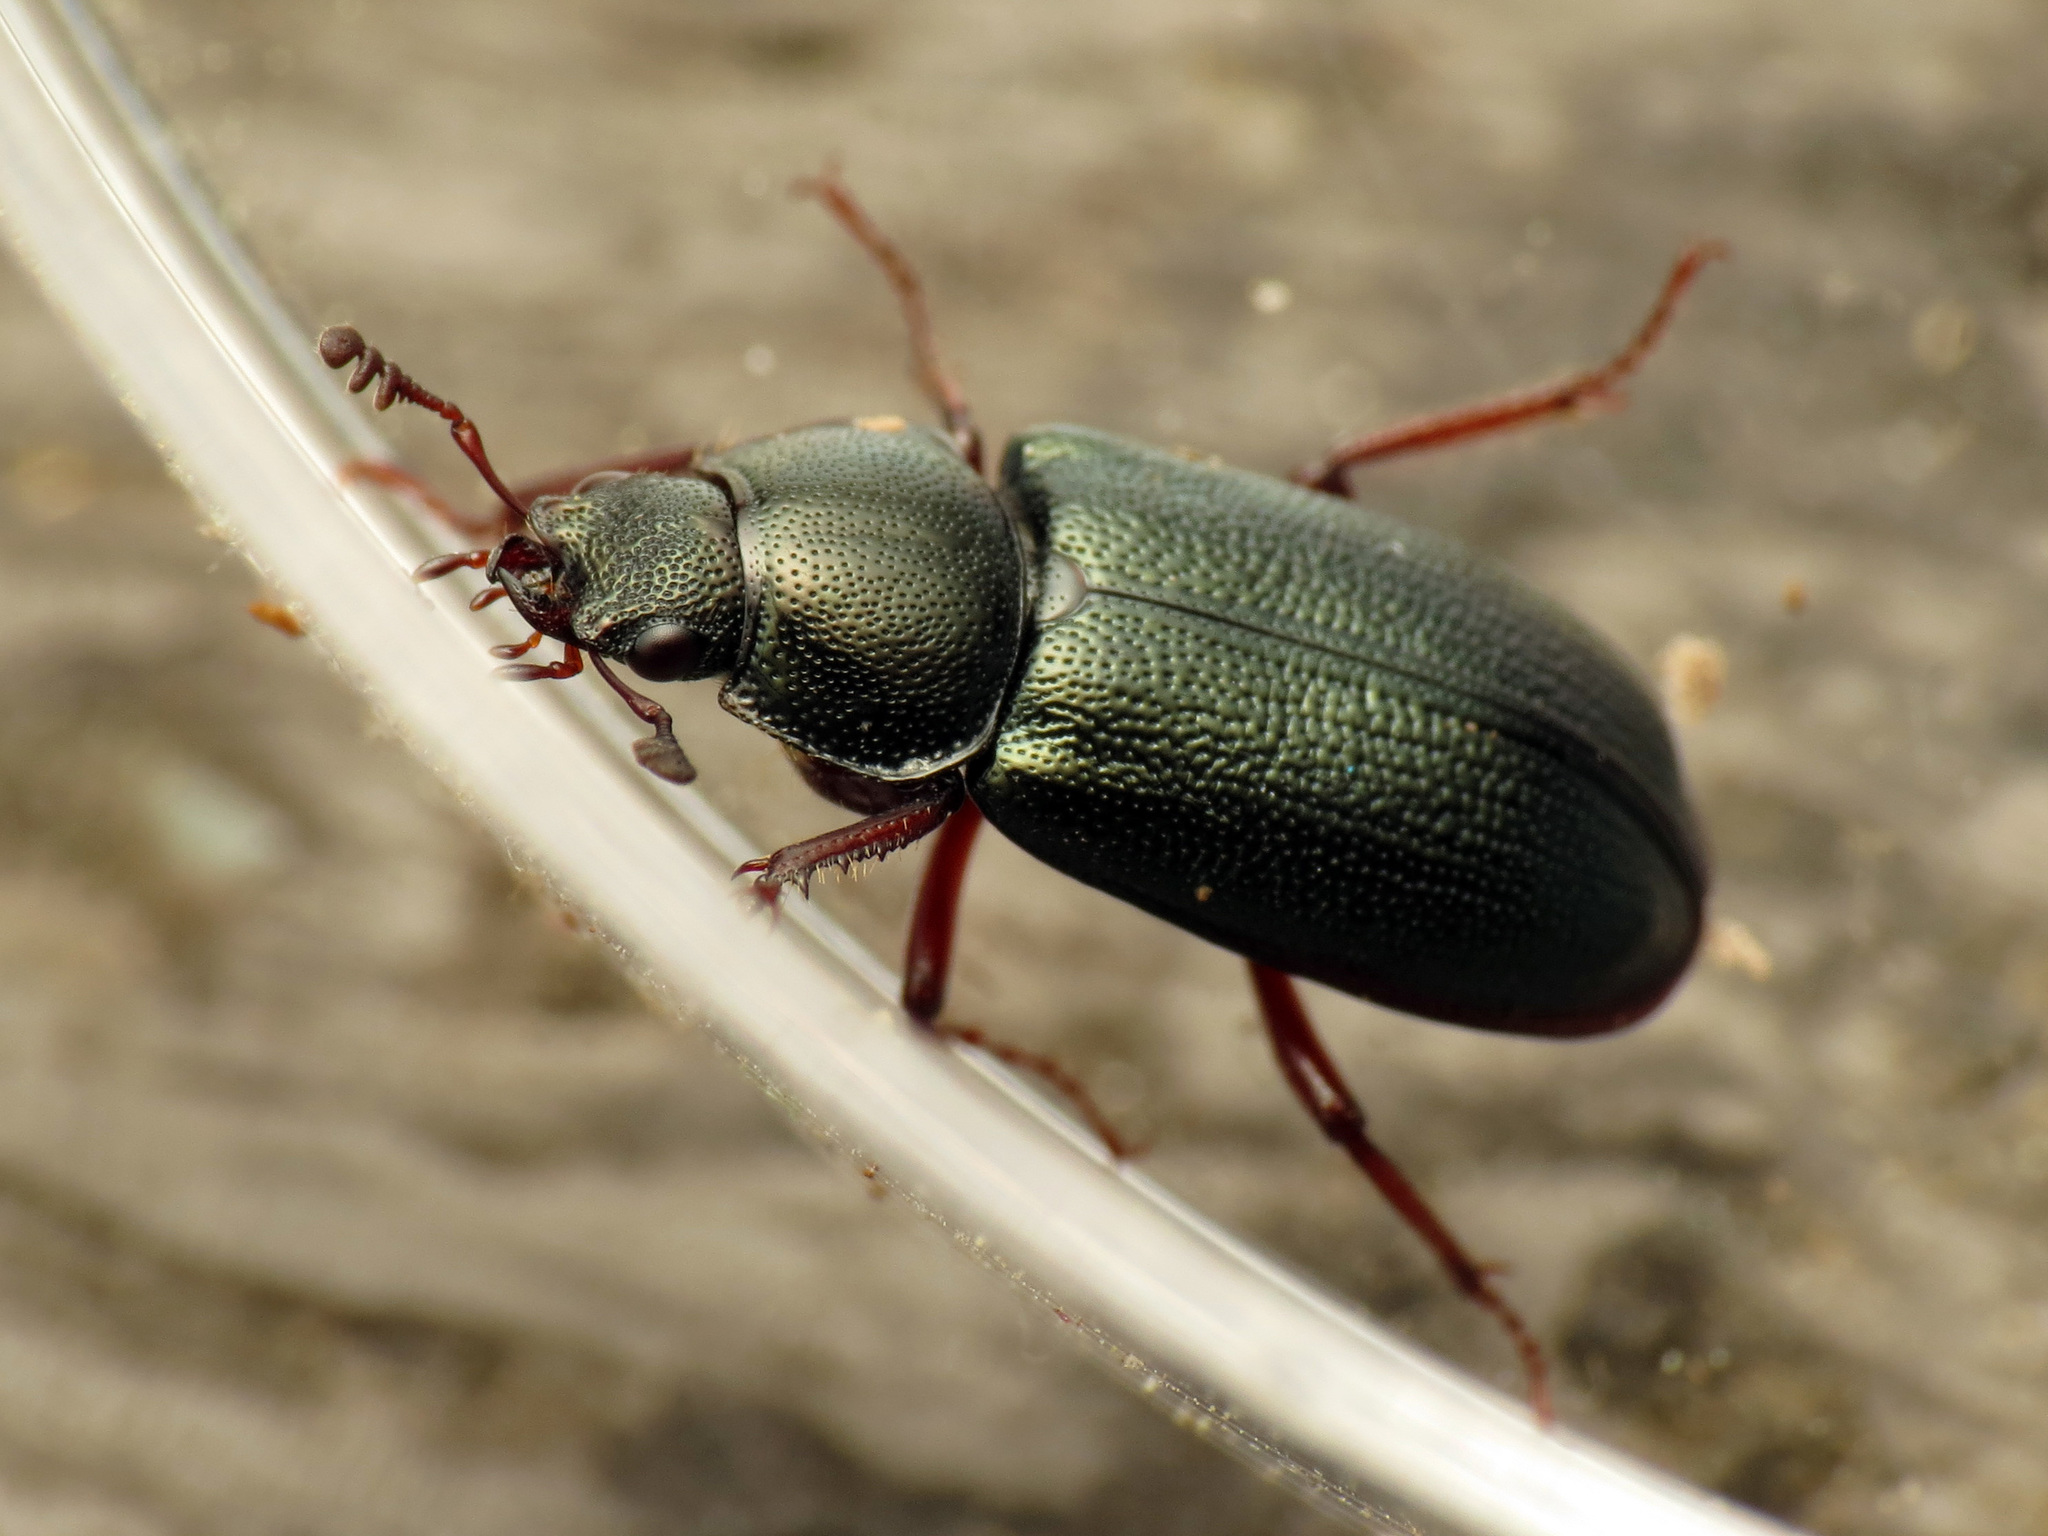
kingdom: Animalia
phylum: Arthropoda
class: Insecta
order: Coleoptera
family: Lucanidae
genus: Platycerus
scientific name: Platycerus quercus
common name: Oak stag beetle
